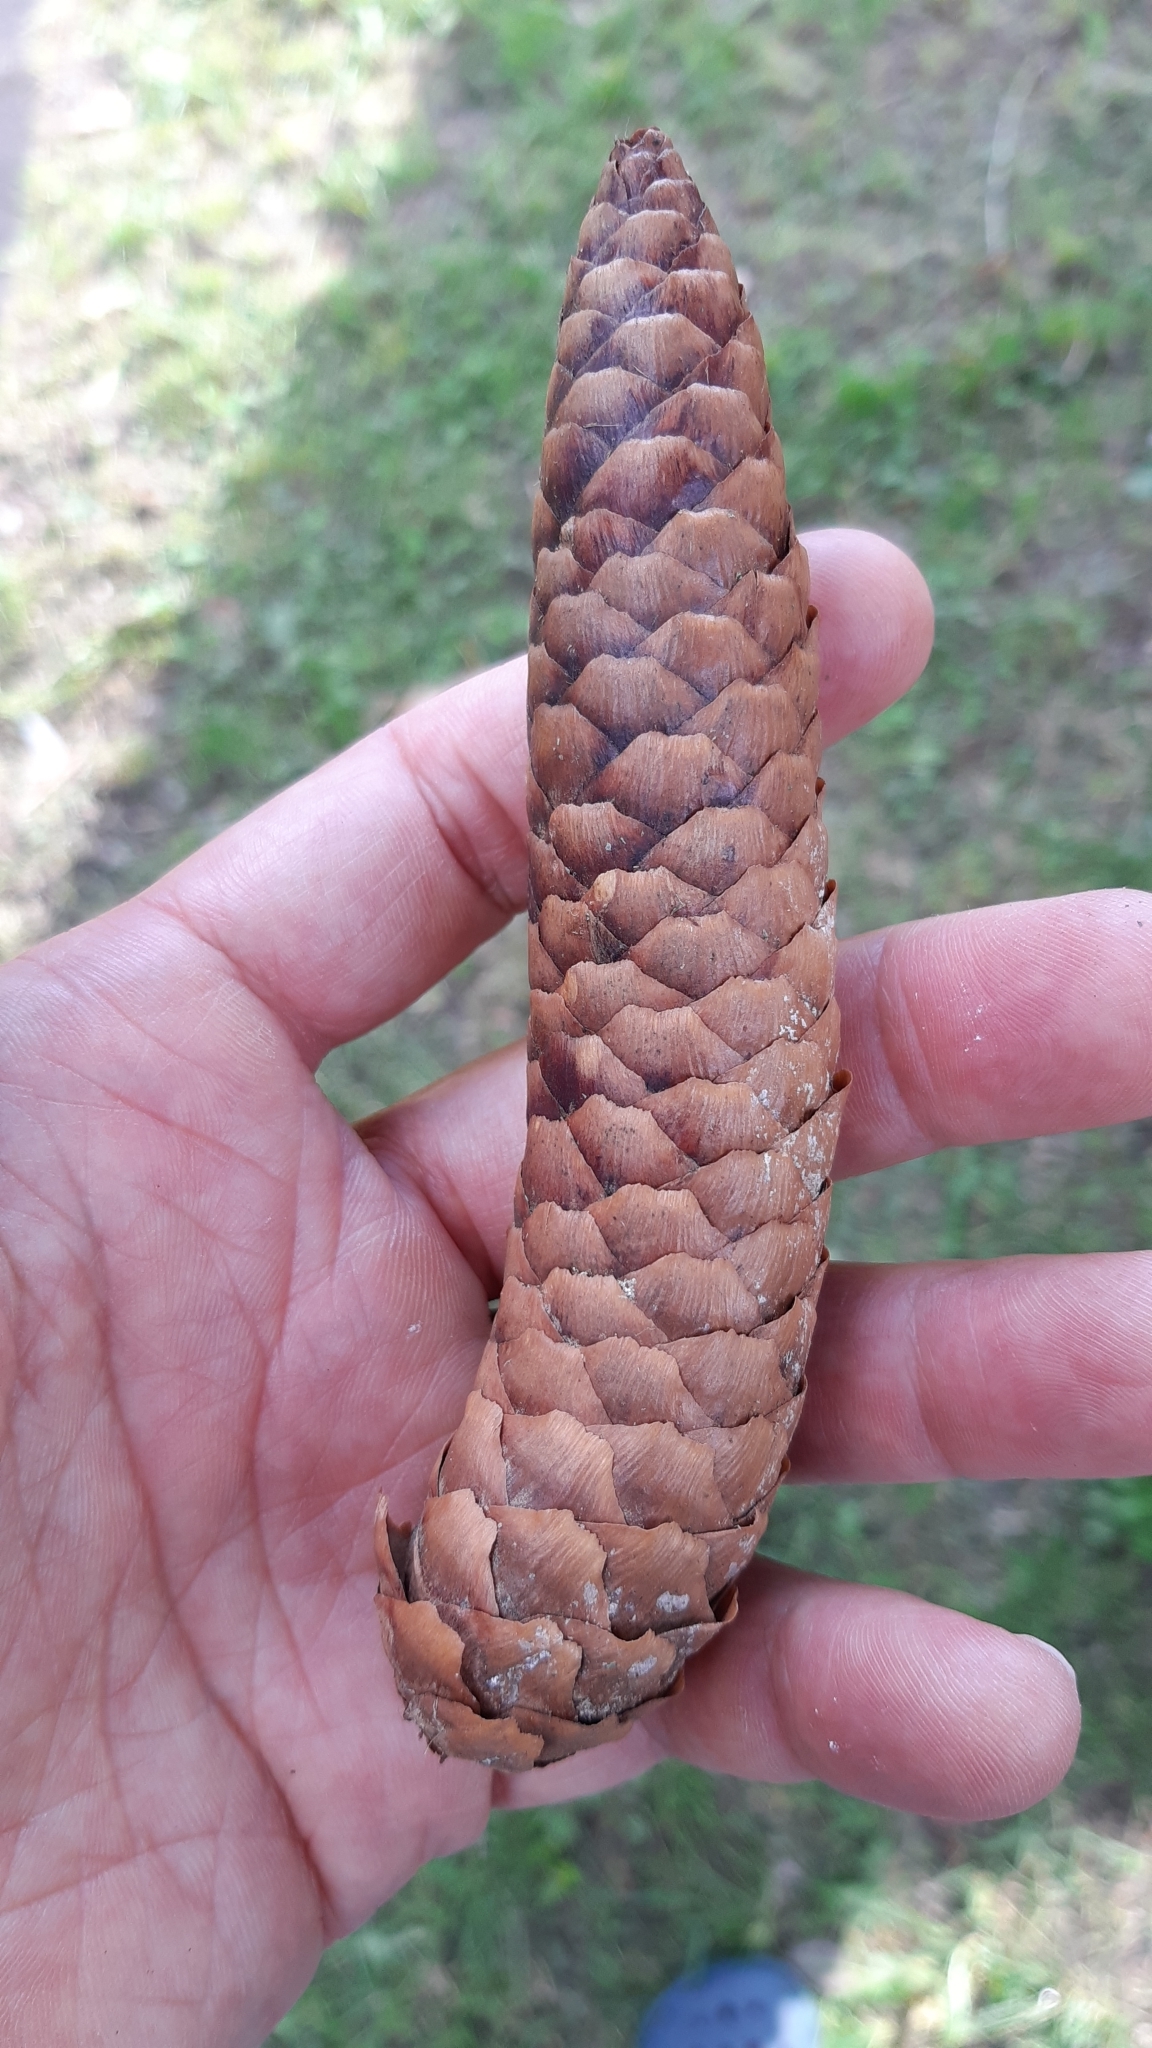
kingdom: Plantae
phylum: Tracheophyta
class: Pinopsida
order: Pinales
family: Pinaceae
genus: Picea
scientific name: Picea abies
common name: Norway spruce
